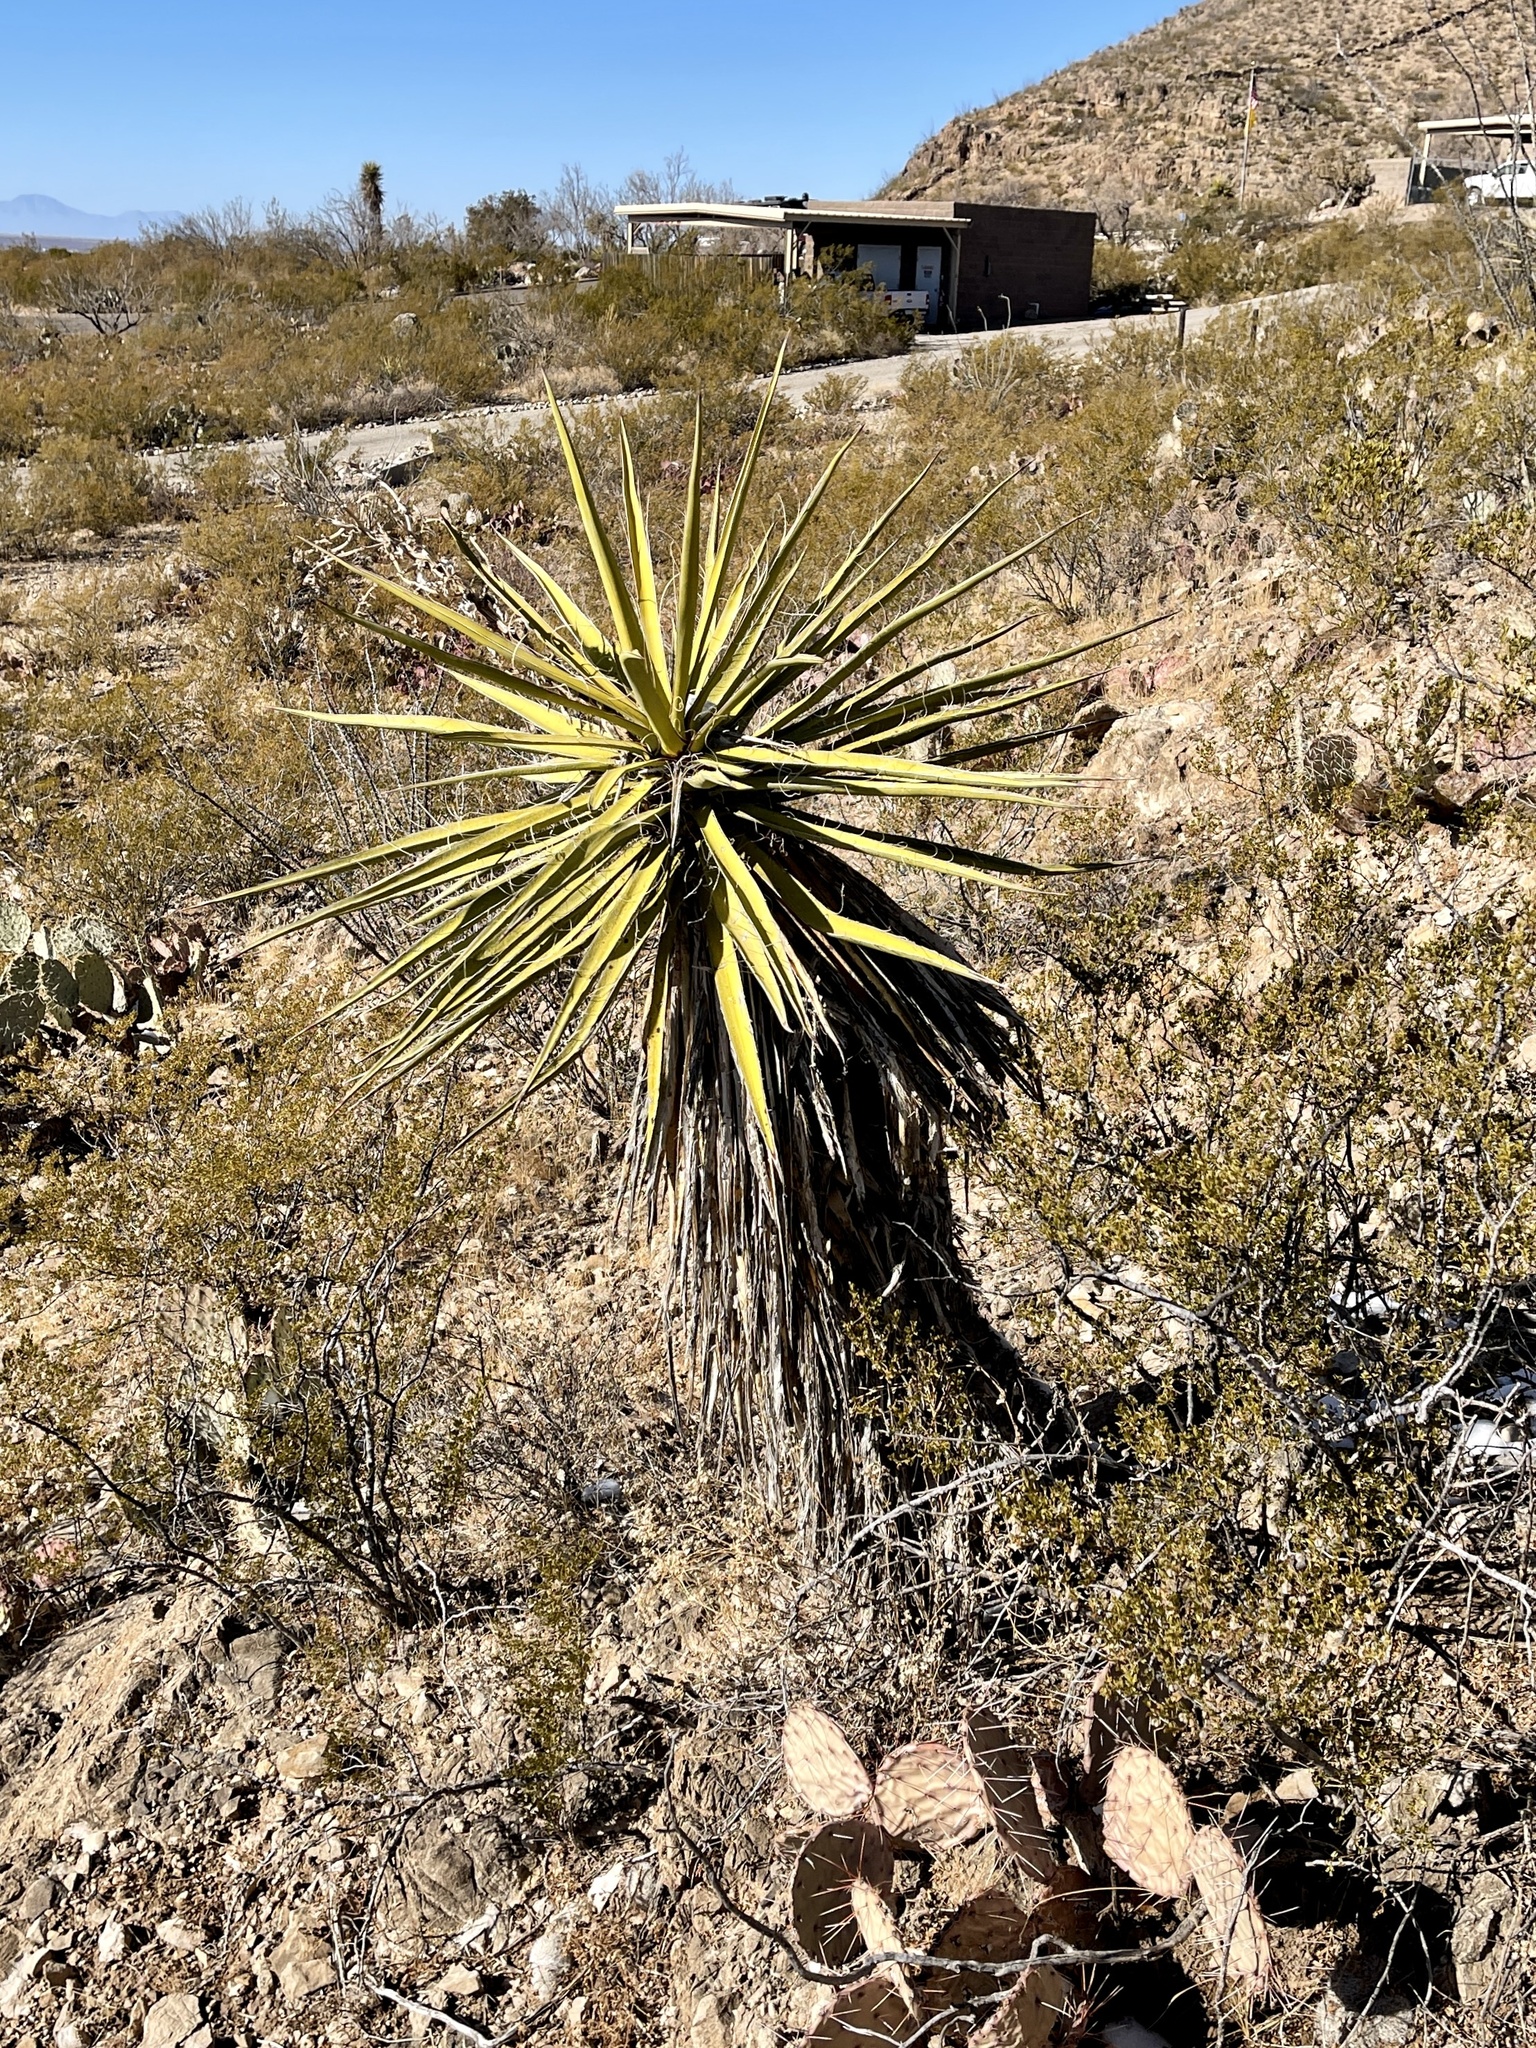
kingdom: Plantae
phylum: Tracheophyta
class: Liliopsida
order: Asparagales
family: Asparagaceae
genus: Yucca
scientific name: Yucca treculiana
